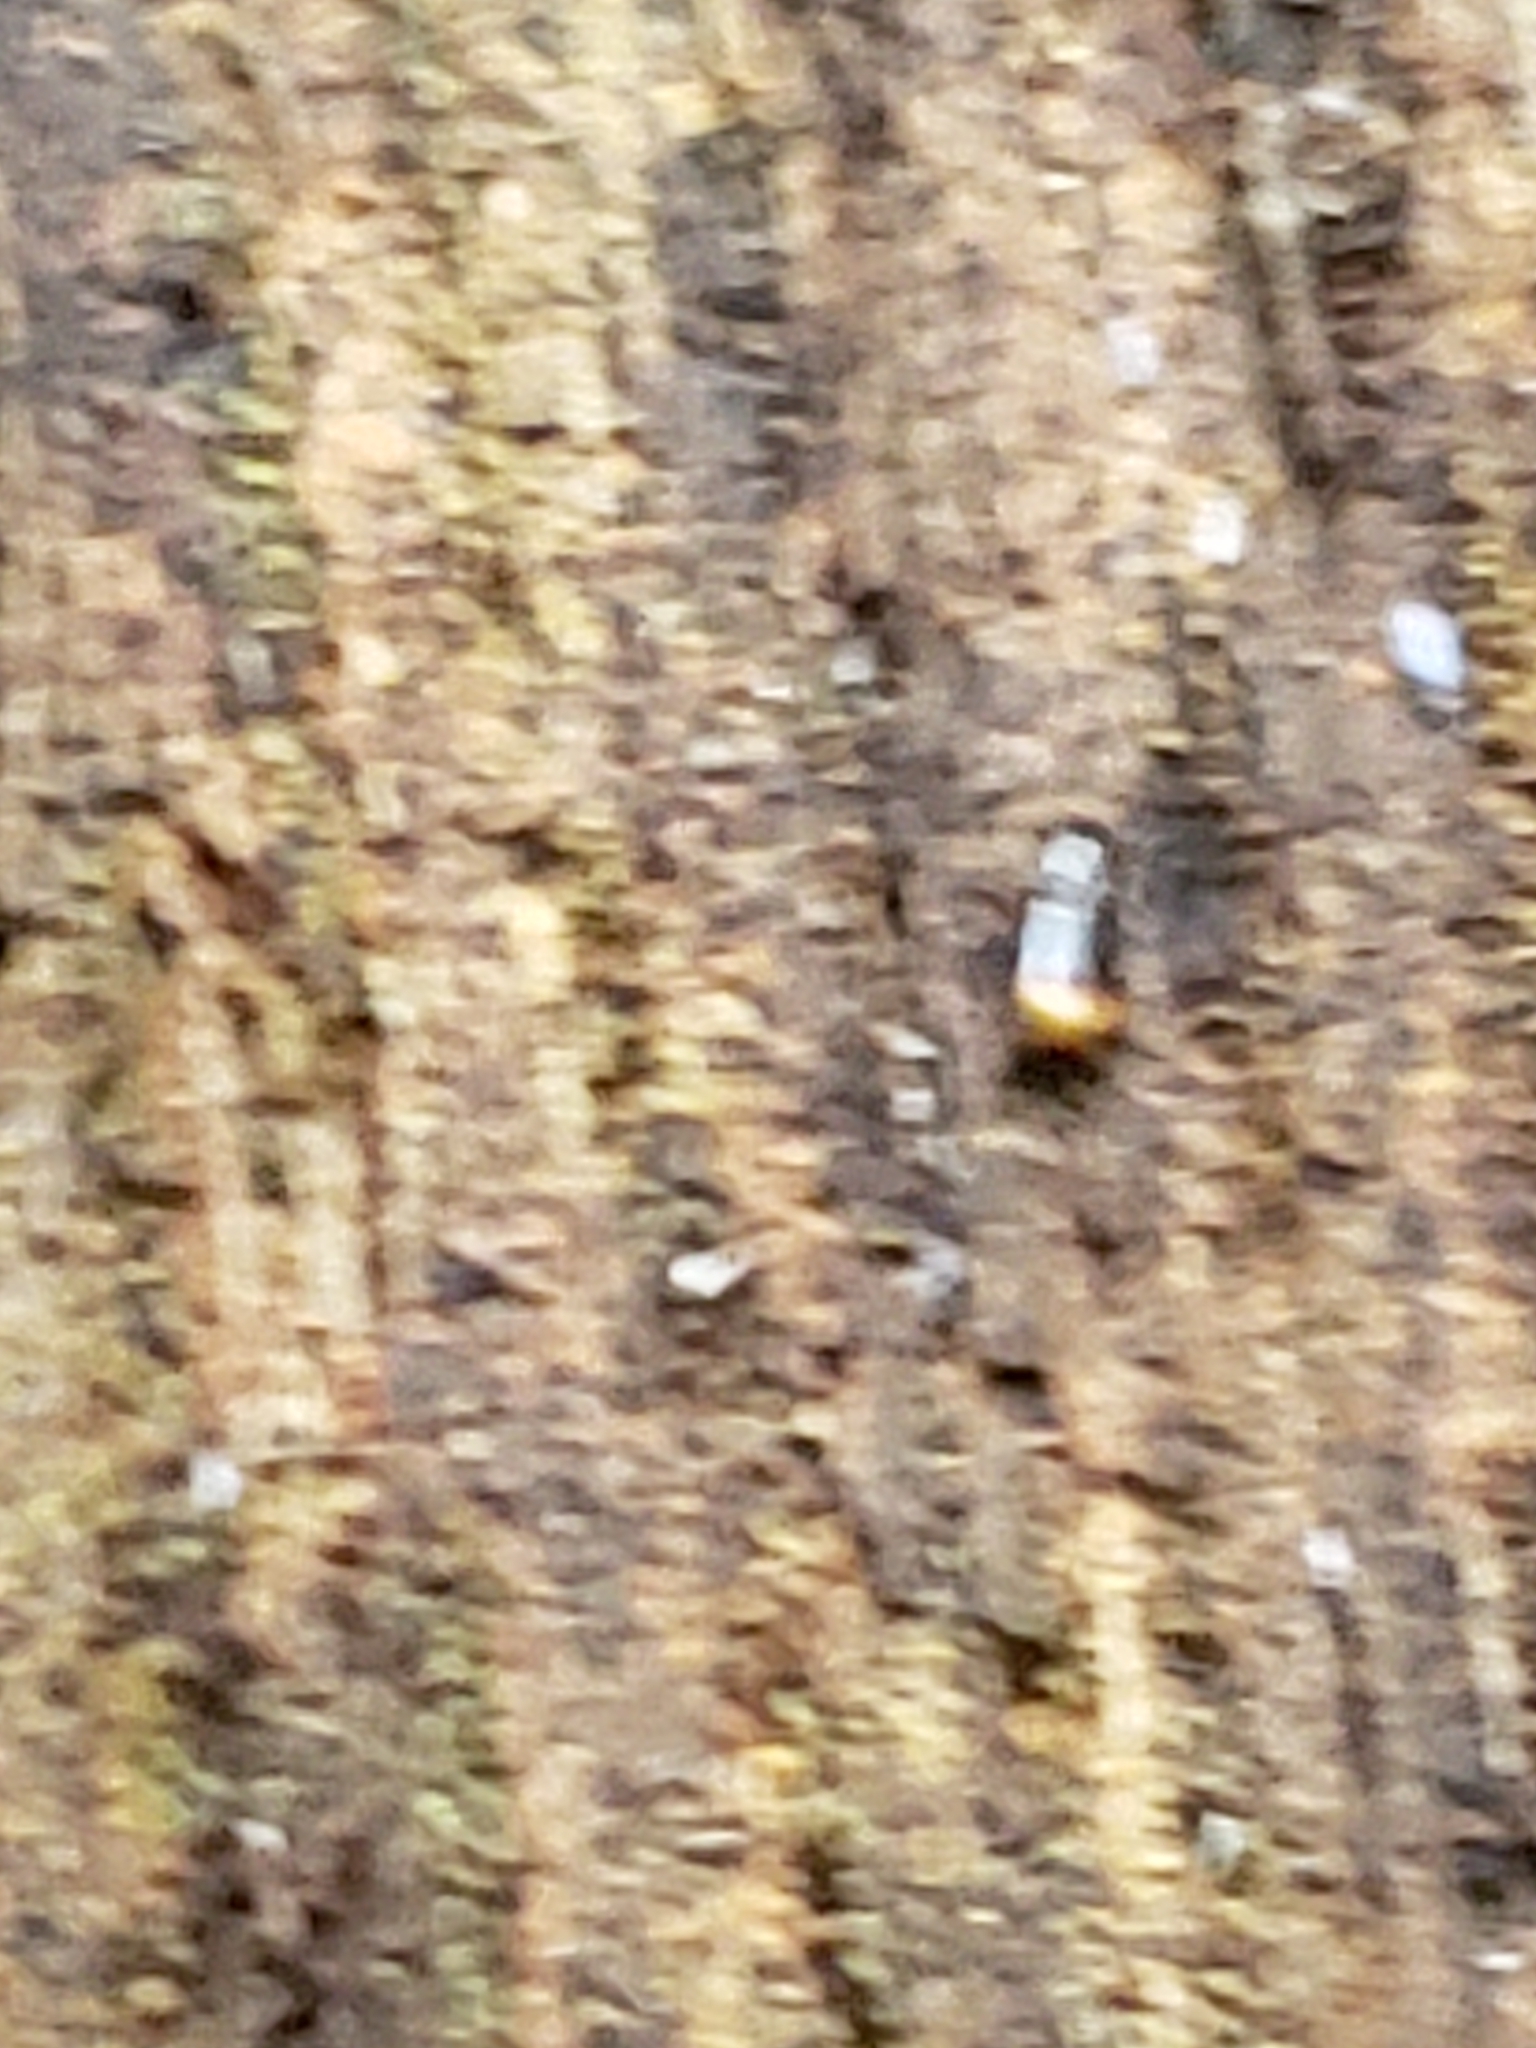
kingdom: Animalia
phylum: Arthropoda
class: Insecta
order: Coleoptera
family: Carabidae
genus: Mioptachys
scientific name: Mioptachys flavicauda
